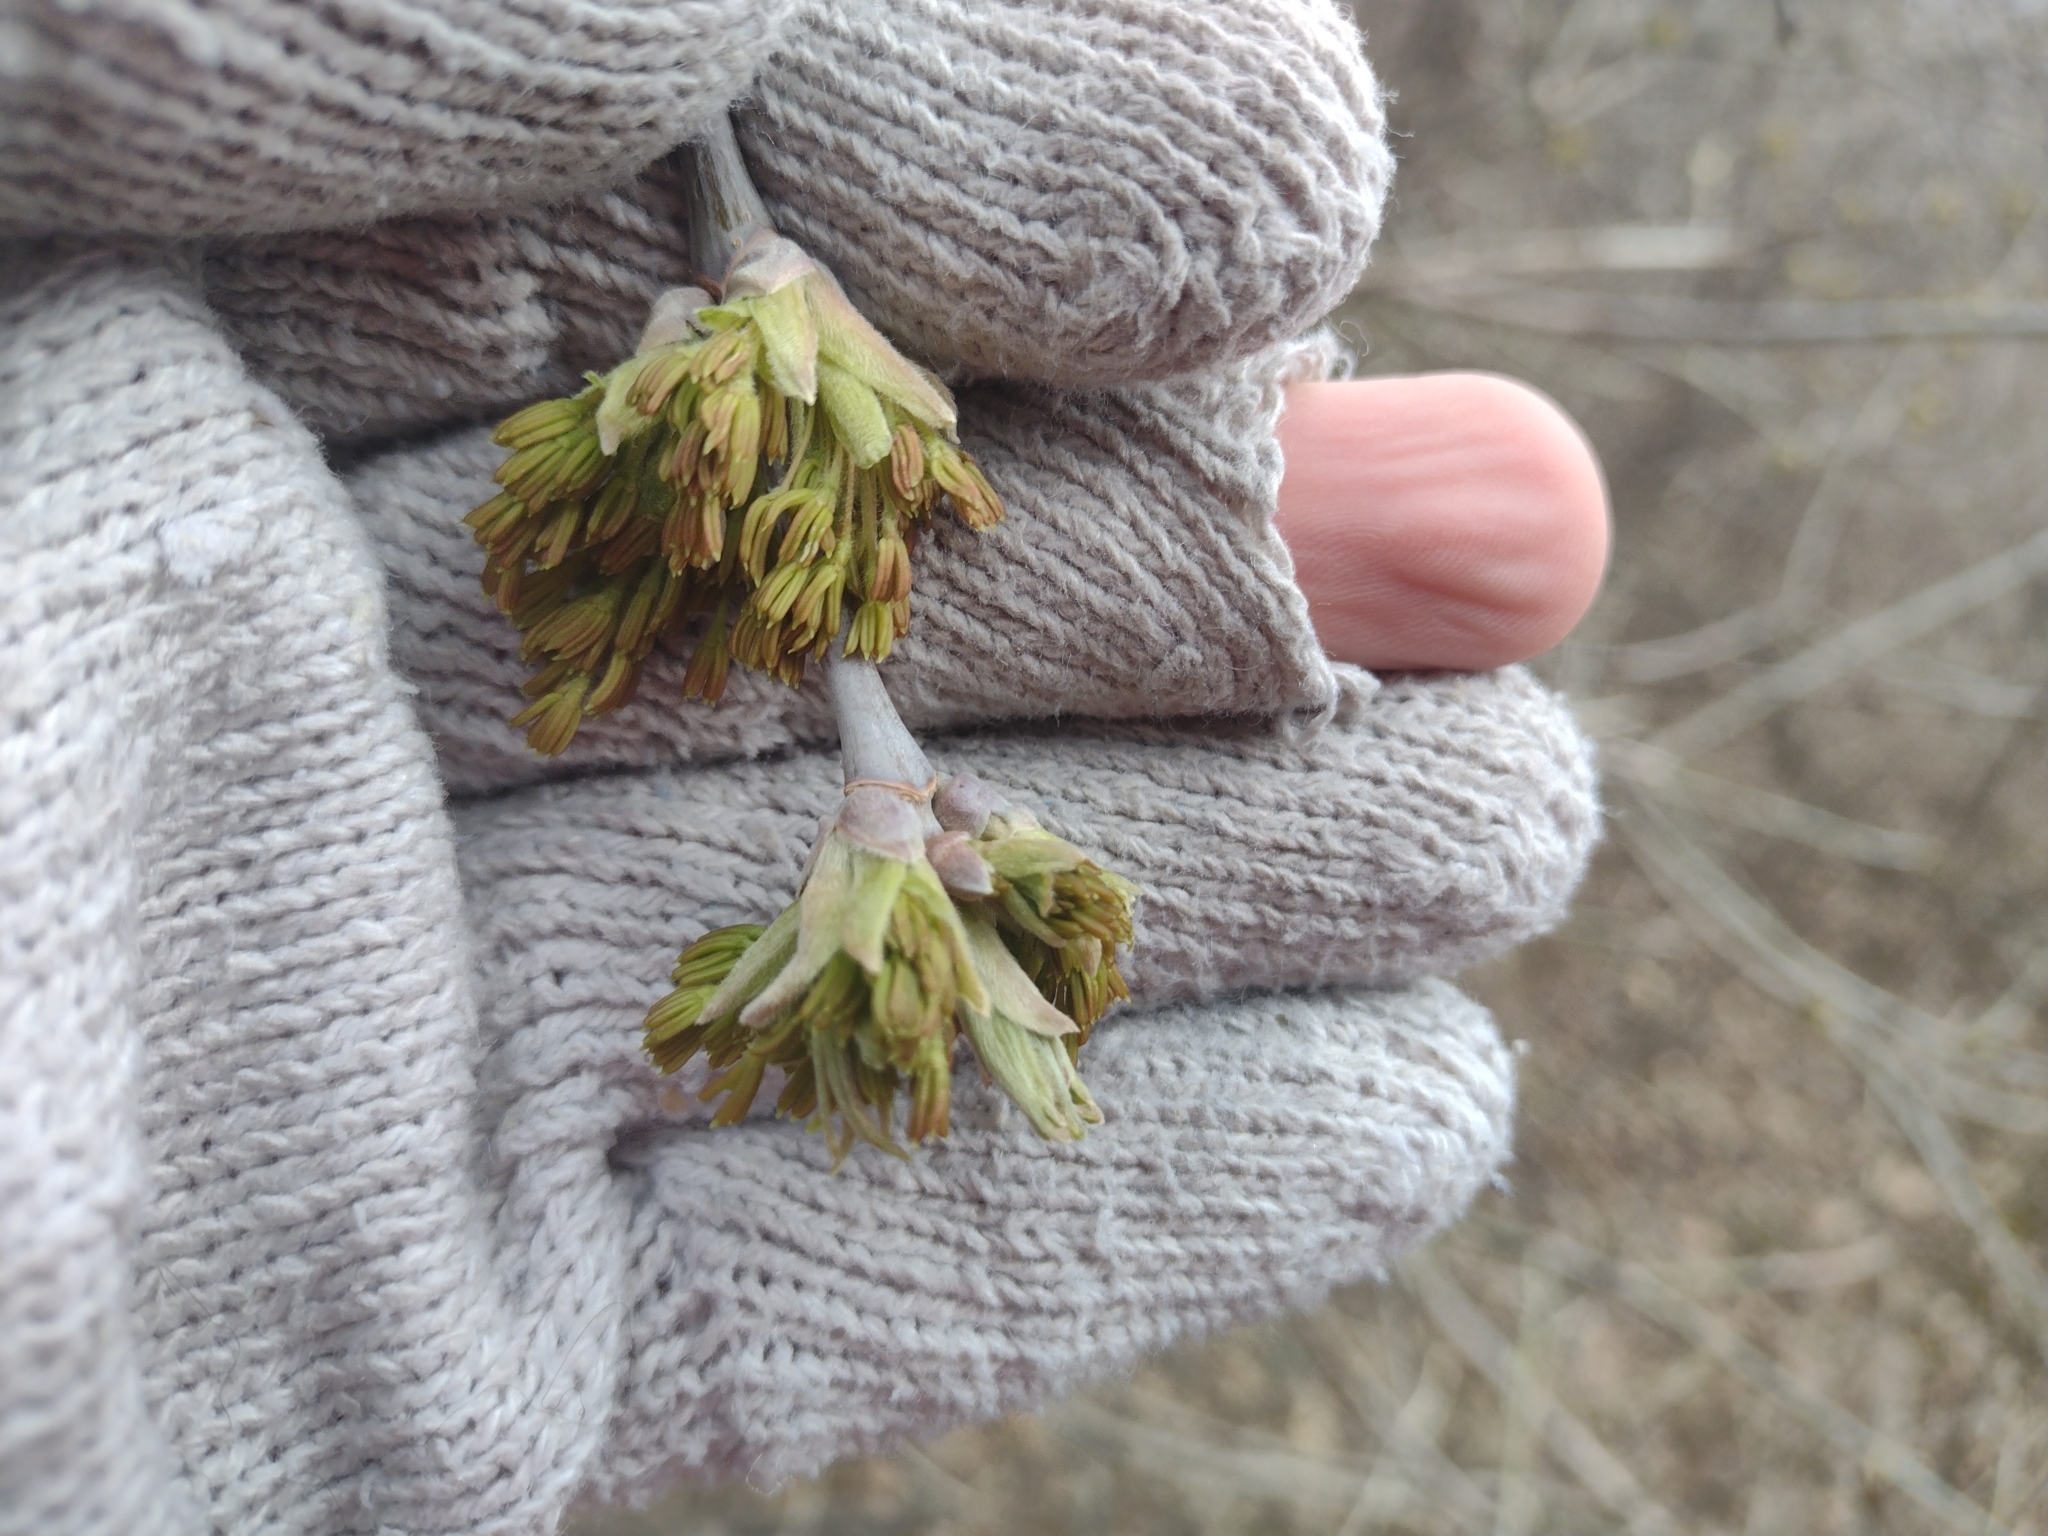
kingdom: Plantae
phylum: Tracheophyta
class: Magnoliopsida
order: Sapindales
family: Sapindaceae
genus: Acer
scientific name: Acer negundo
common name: Ashleaf maple
